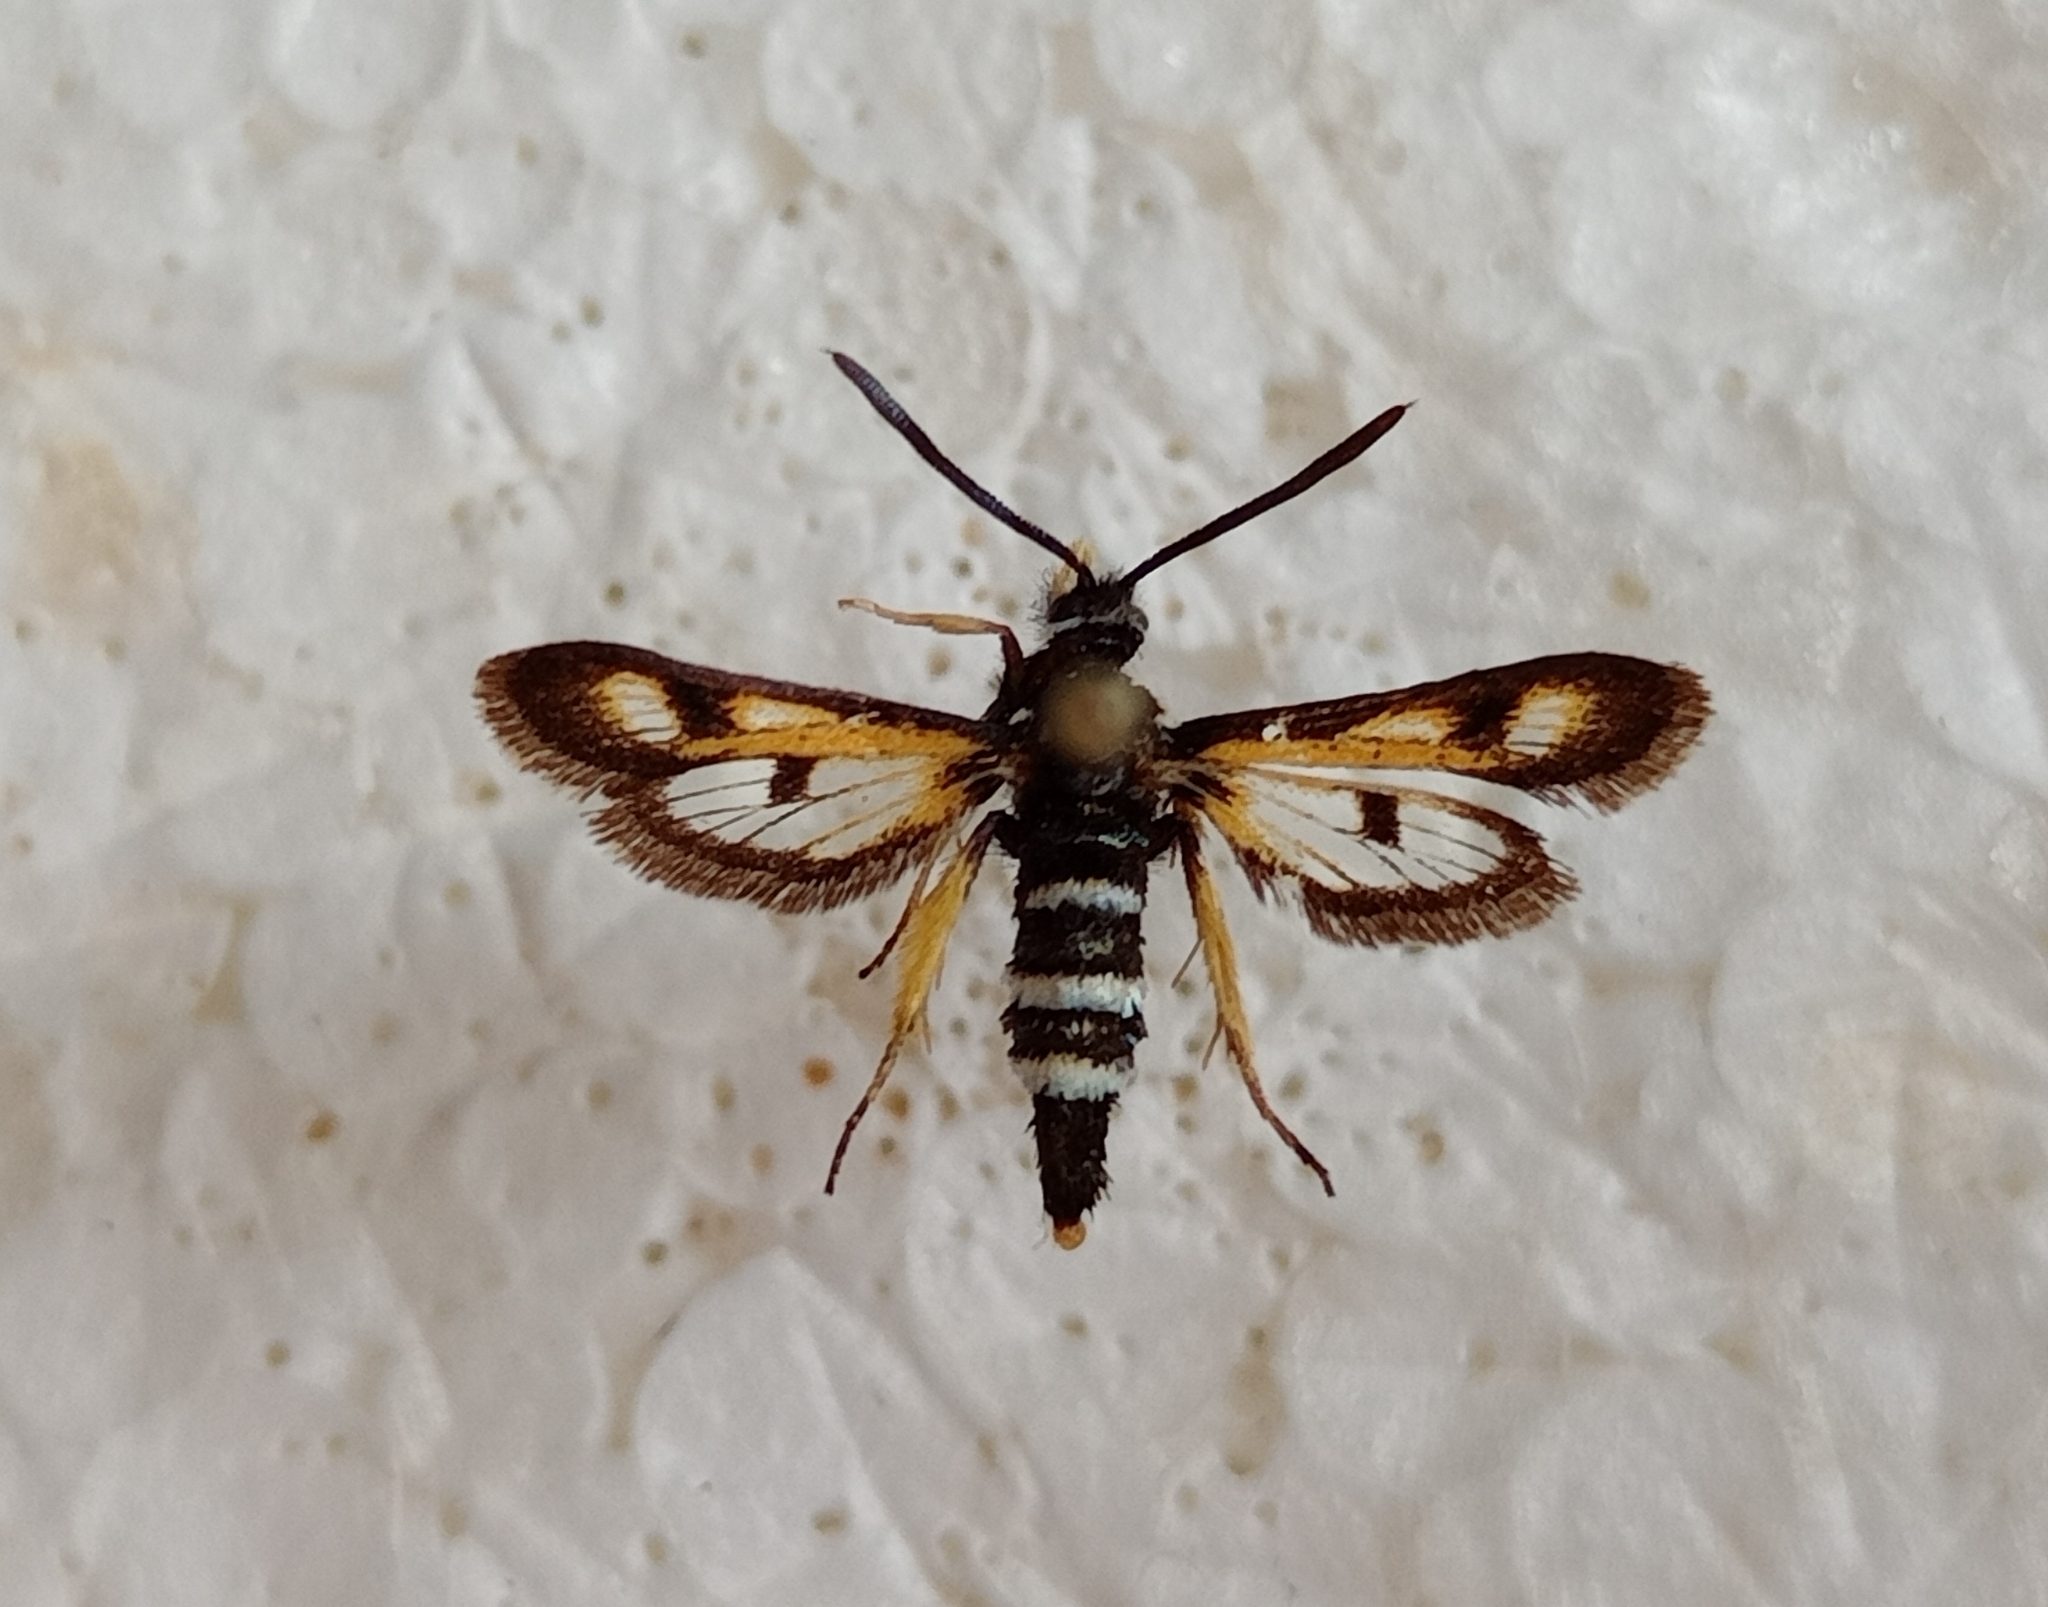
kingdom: Animalia
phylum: Arthropoda
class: Insecta
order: Lepidoptera
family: Sesiidae
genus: Euhagena
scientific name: Euhagena palariformis
